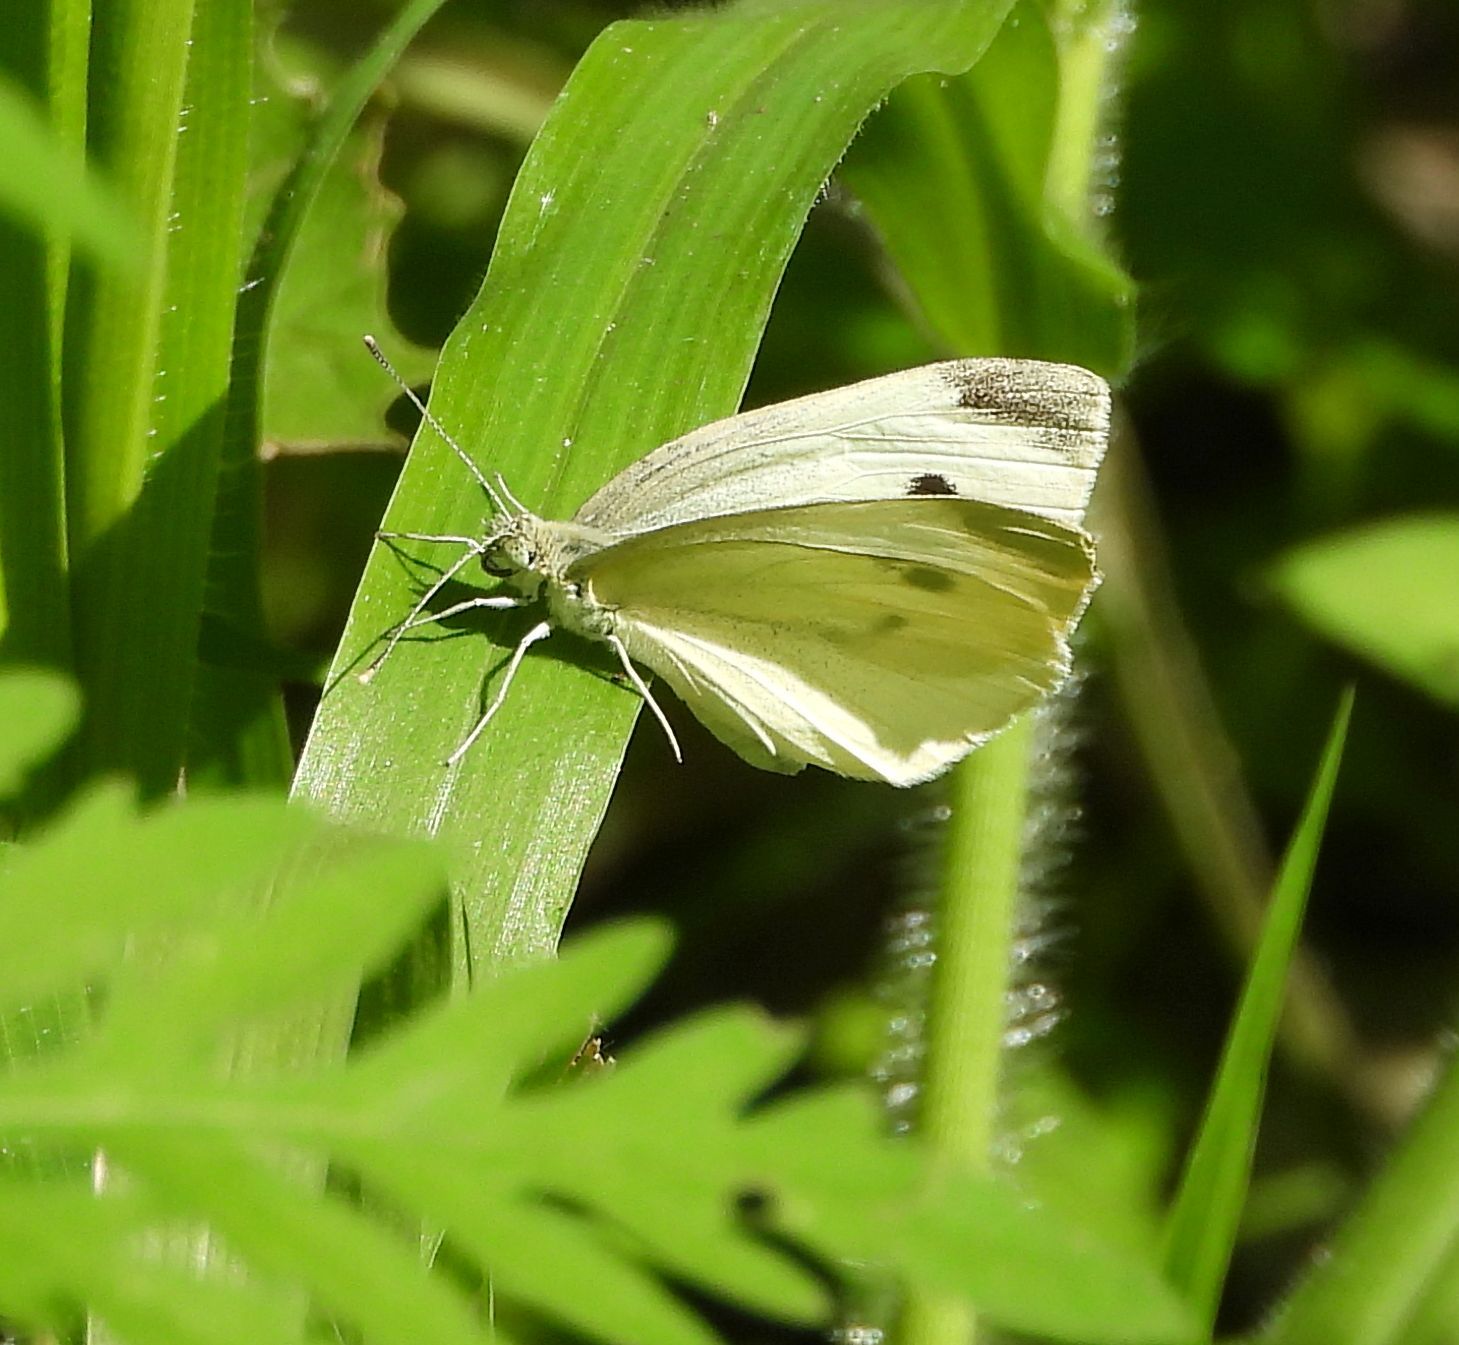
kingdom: Animalia
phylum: Arthropoda
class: Insecta
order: Lepidoptera
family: Pieridae
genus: Pieris
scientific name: Pieris rapae
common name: Small white
